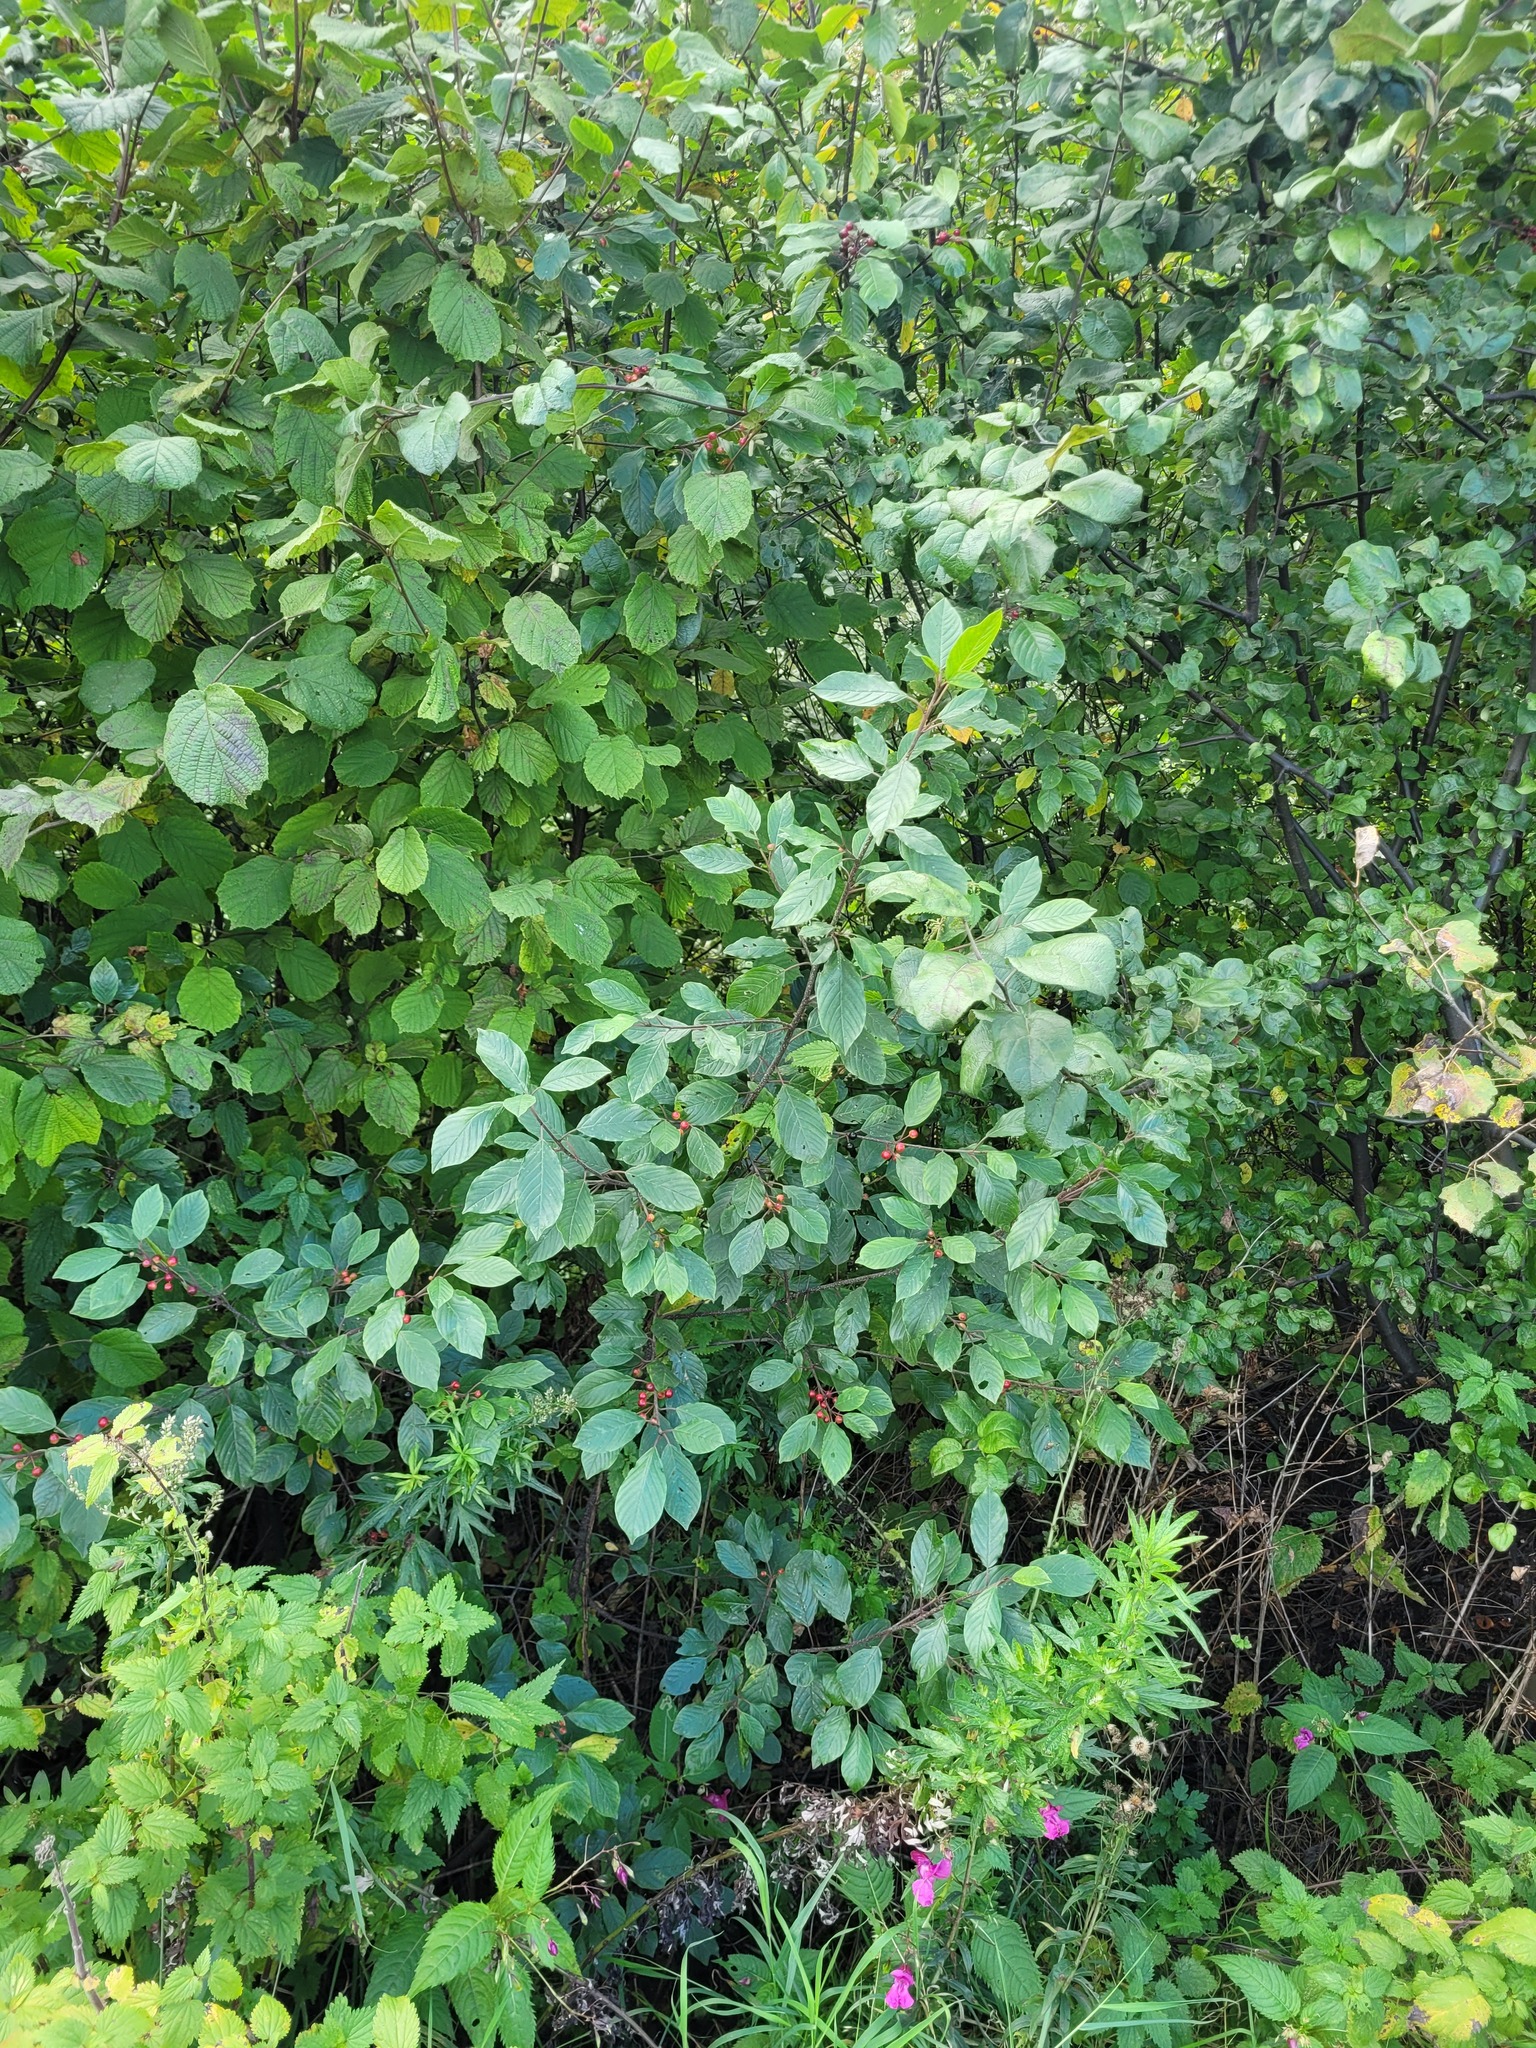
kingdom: Plantae
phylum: Tracheophyta
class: Magnoliopsida
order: Rosales
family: Rhamnaceae
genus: Frangula
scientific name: Frangula alnus
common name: Alder buckthorn
